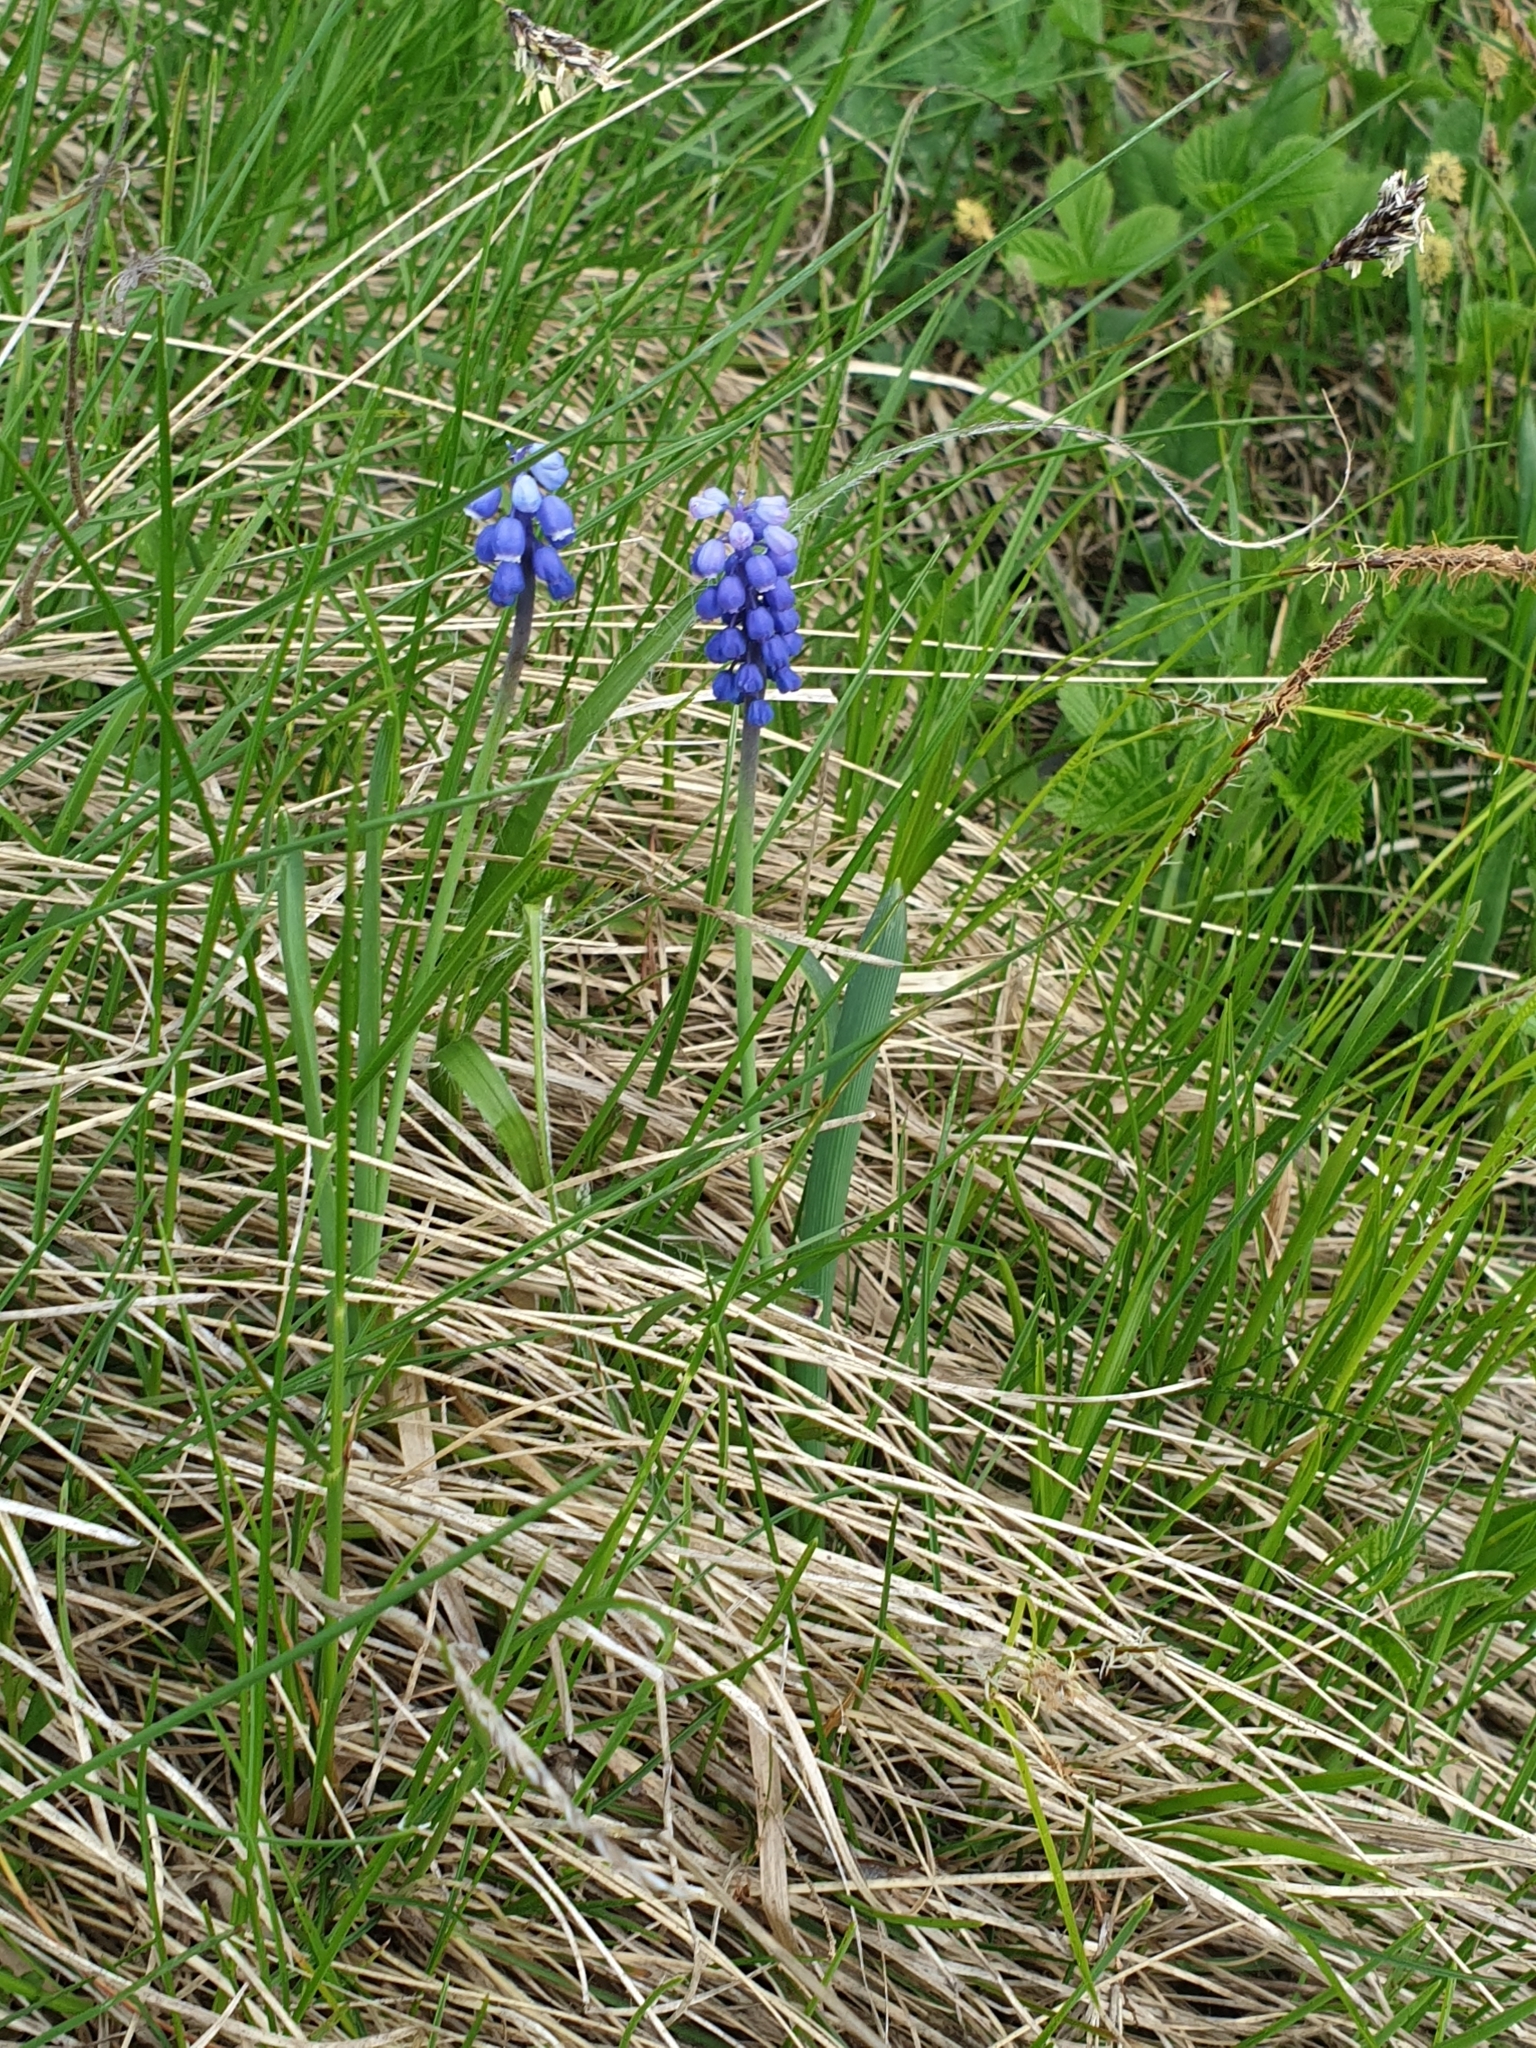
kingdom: Plantae
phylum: Tracheophyta
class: Liliopsida
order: Asparagales
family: Asparagaceae
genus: Muscari
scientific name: Muscari botryoides
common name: Compact grape-hyacinth
